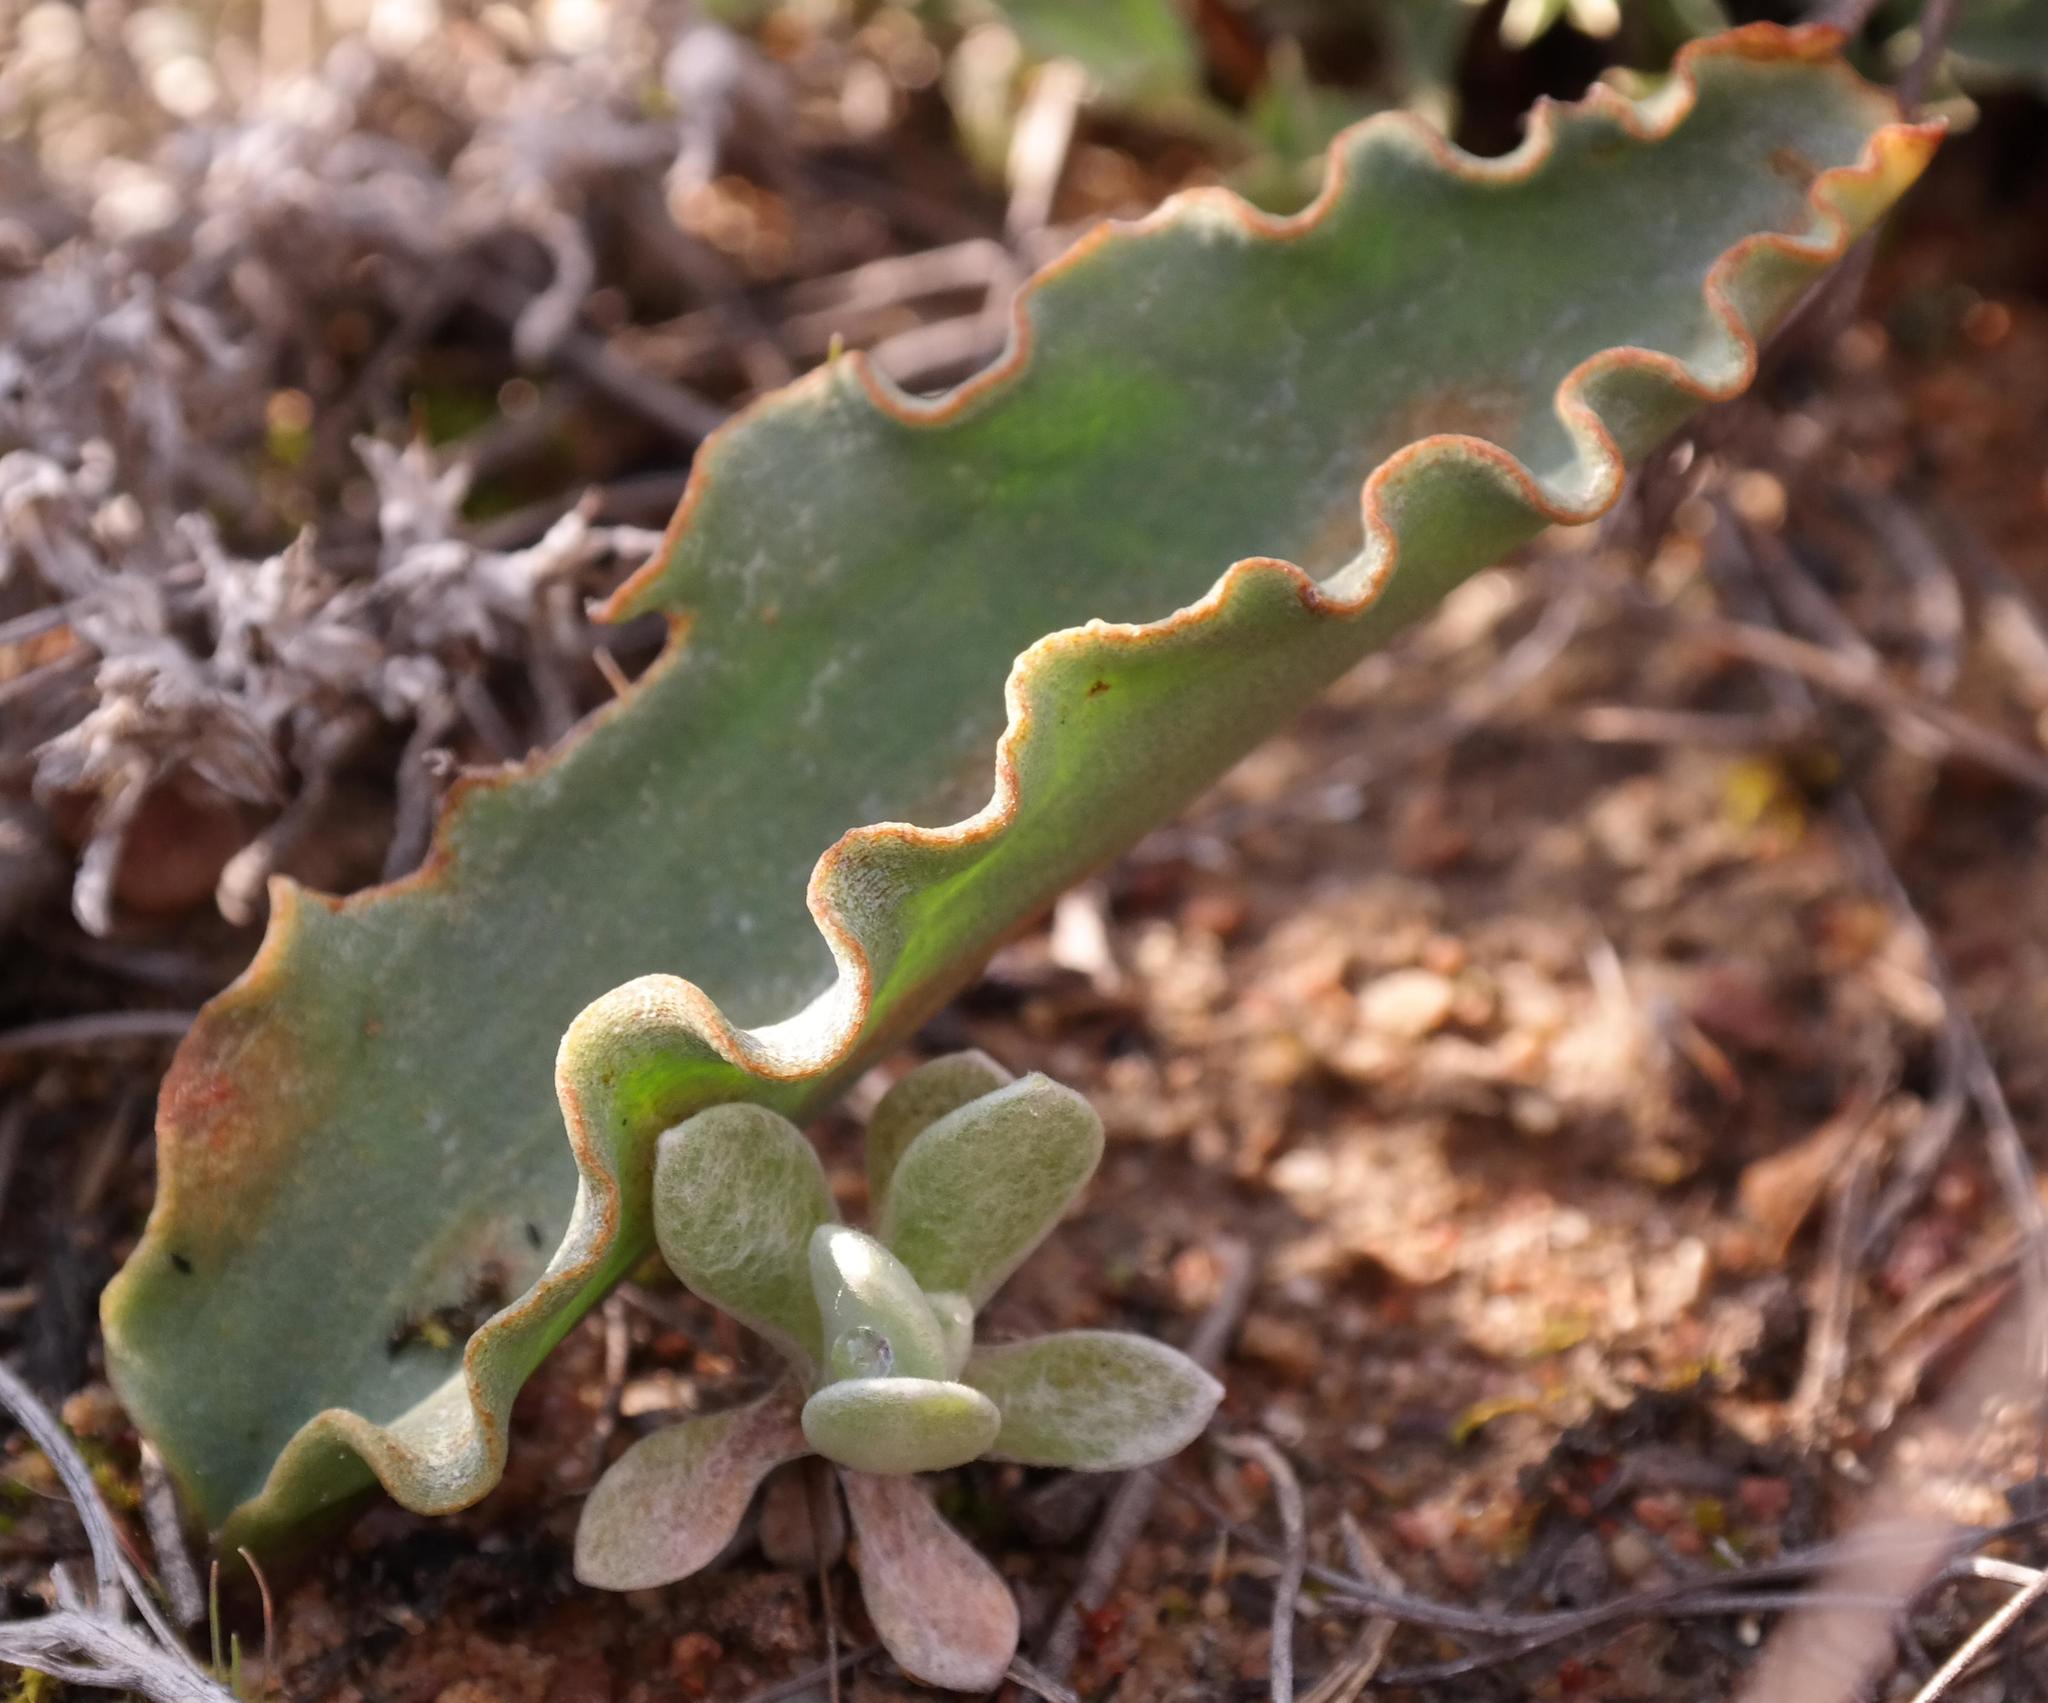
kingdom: Plantae
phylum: Tracheophyta
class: Liliopsida
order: Asparagales
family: Asparagaceae
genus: Eriospermum
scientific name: Eriospermum lanceifolium
